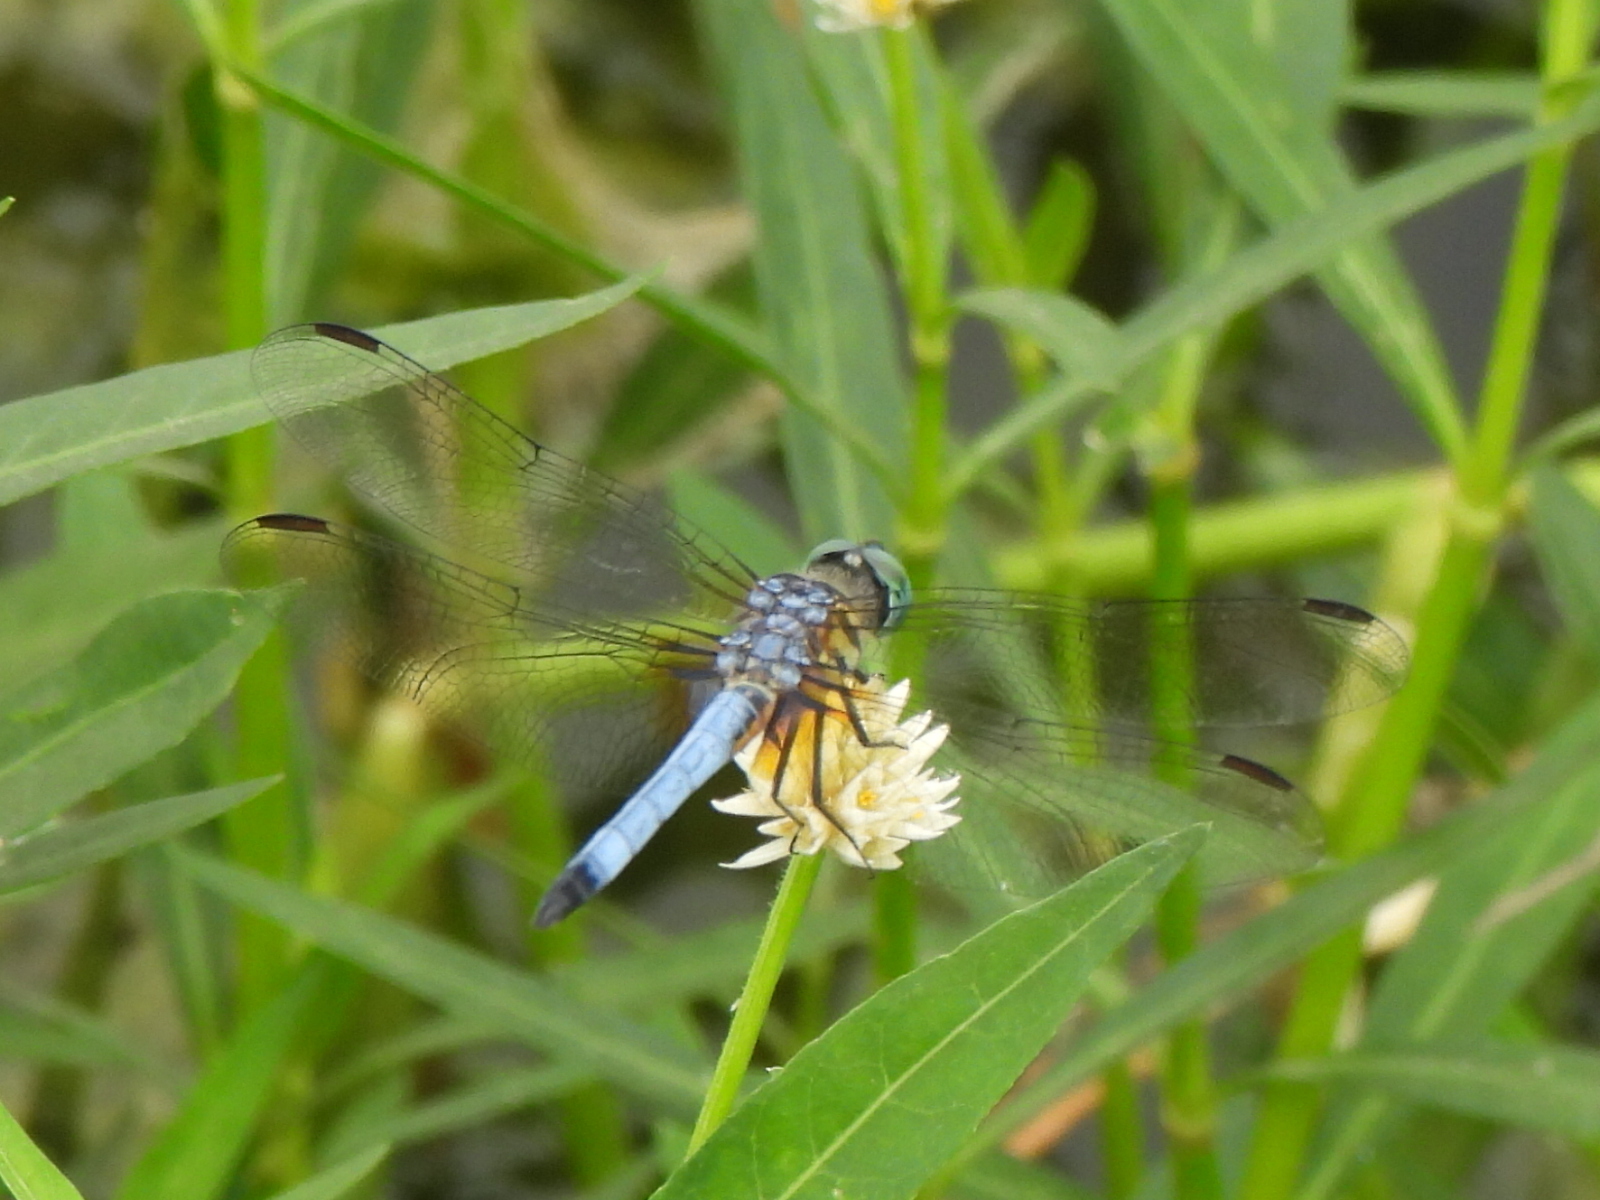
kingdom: Animalia
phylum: Arthropoda
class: Insecta
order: Odonata
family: Libellulidae
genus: Pachydiplax
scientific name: Pachydiplax longipennis
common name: Blue dasher
